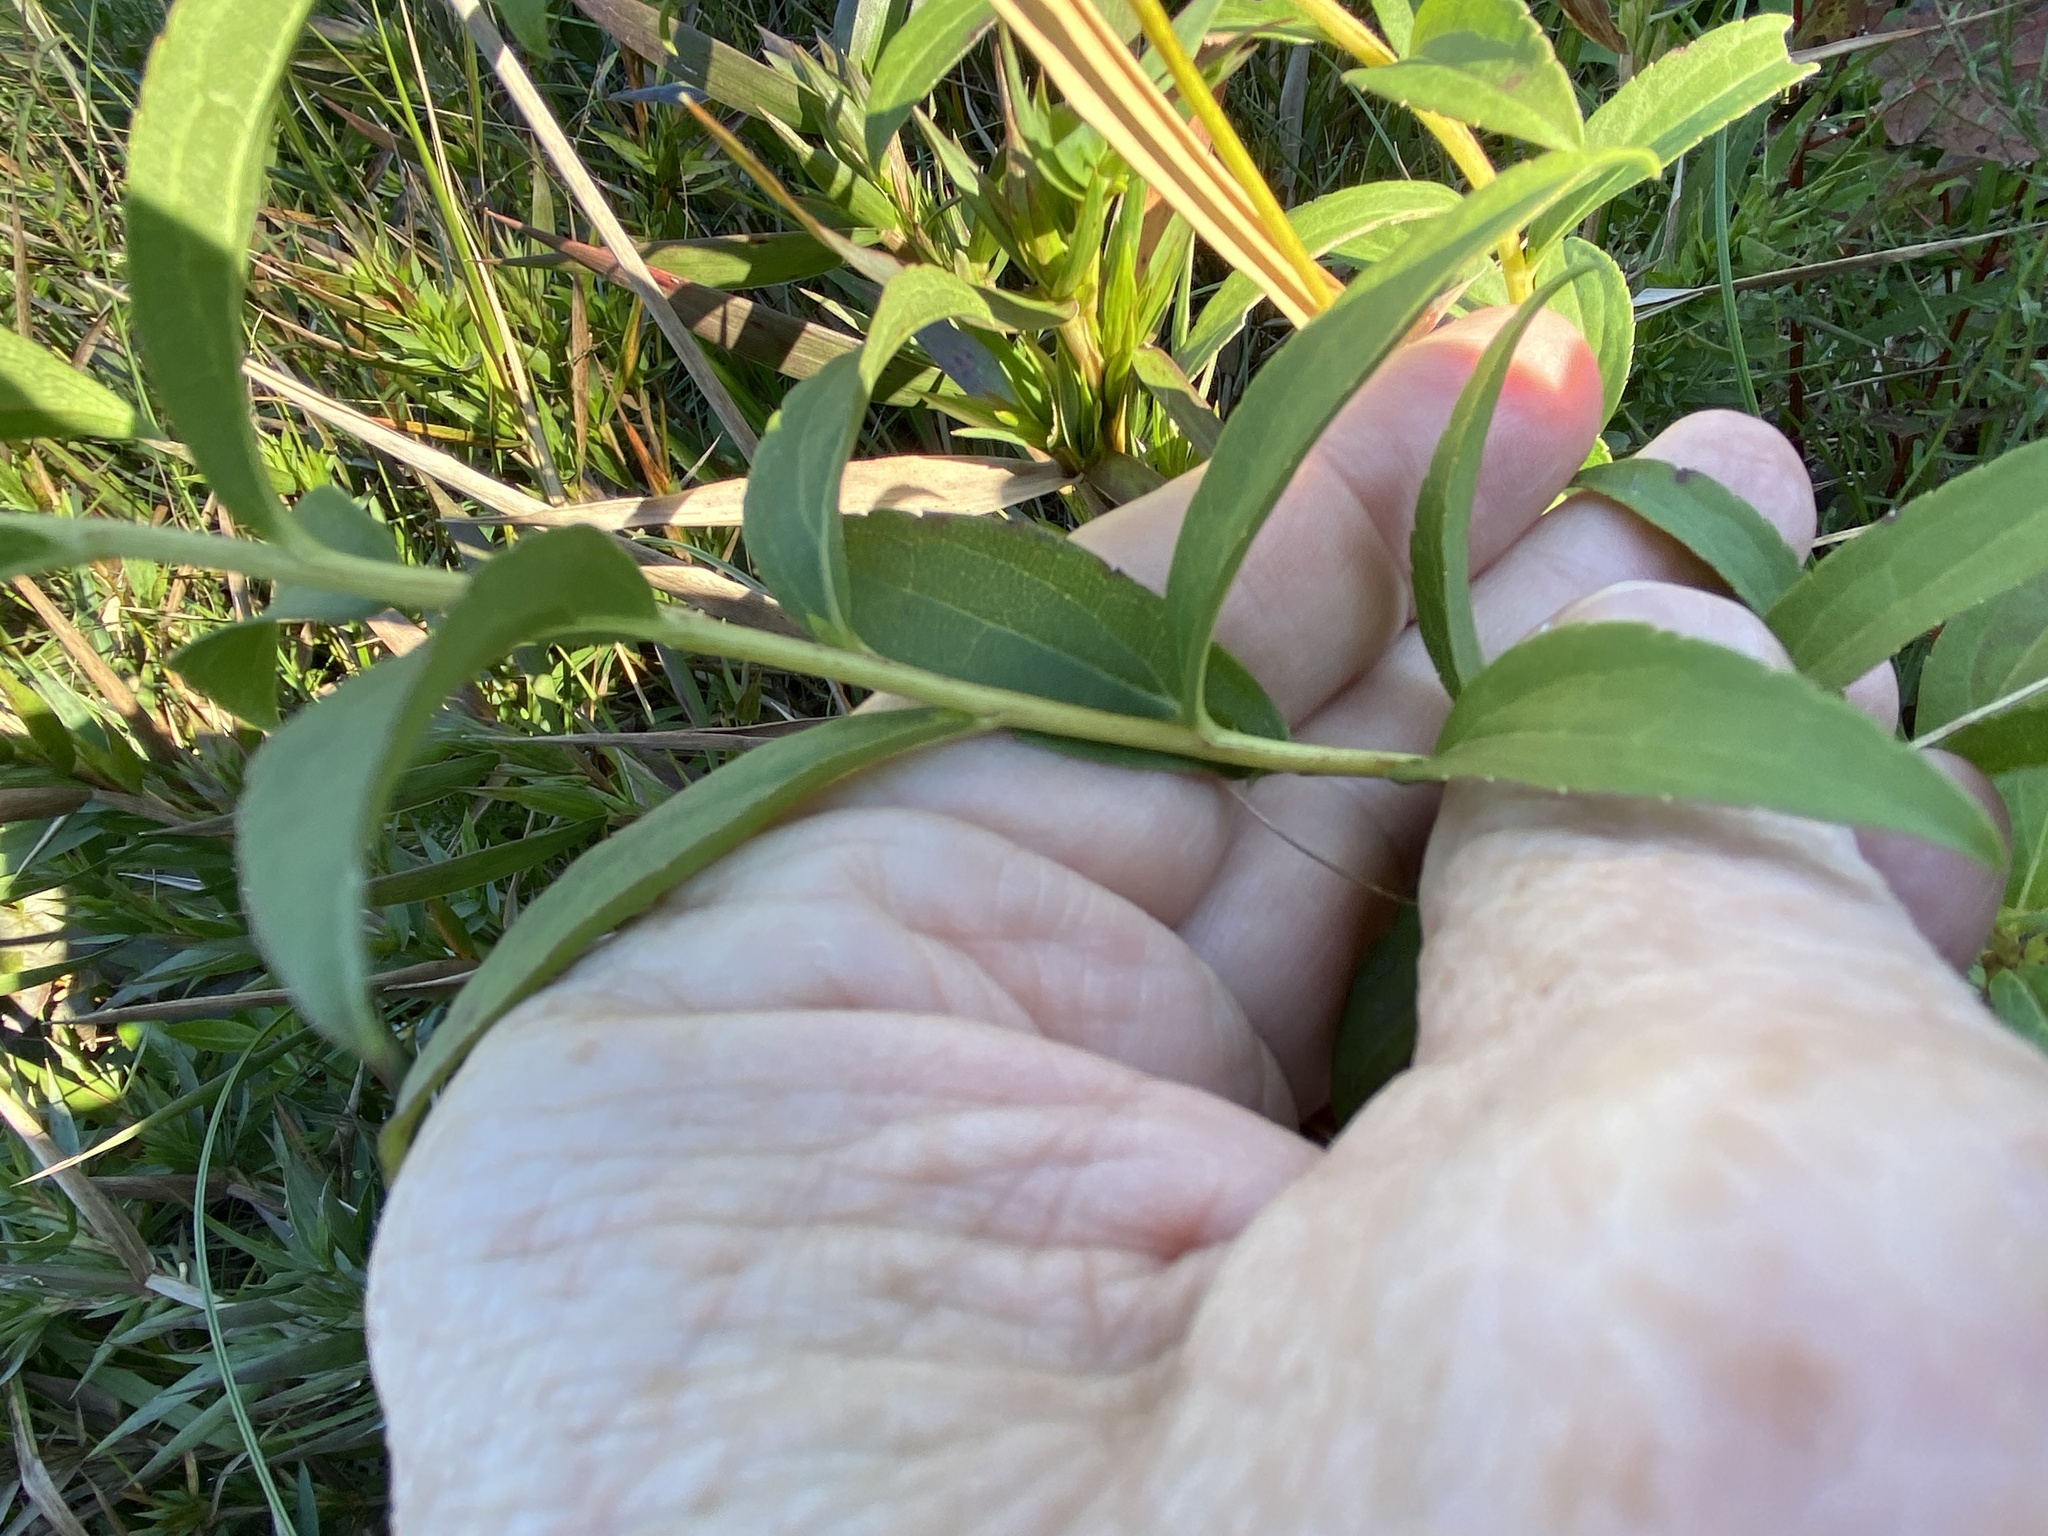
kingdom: Plantae
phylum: Tracheophyta
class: Magnoliopsida
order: Asterales
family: Asteraceae
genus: Solidago
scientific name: Solidago latissimifolia
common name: Elliott's goldenrod
